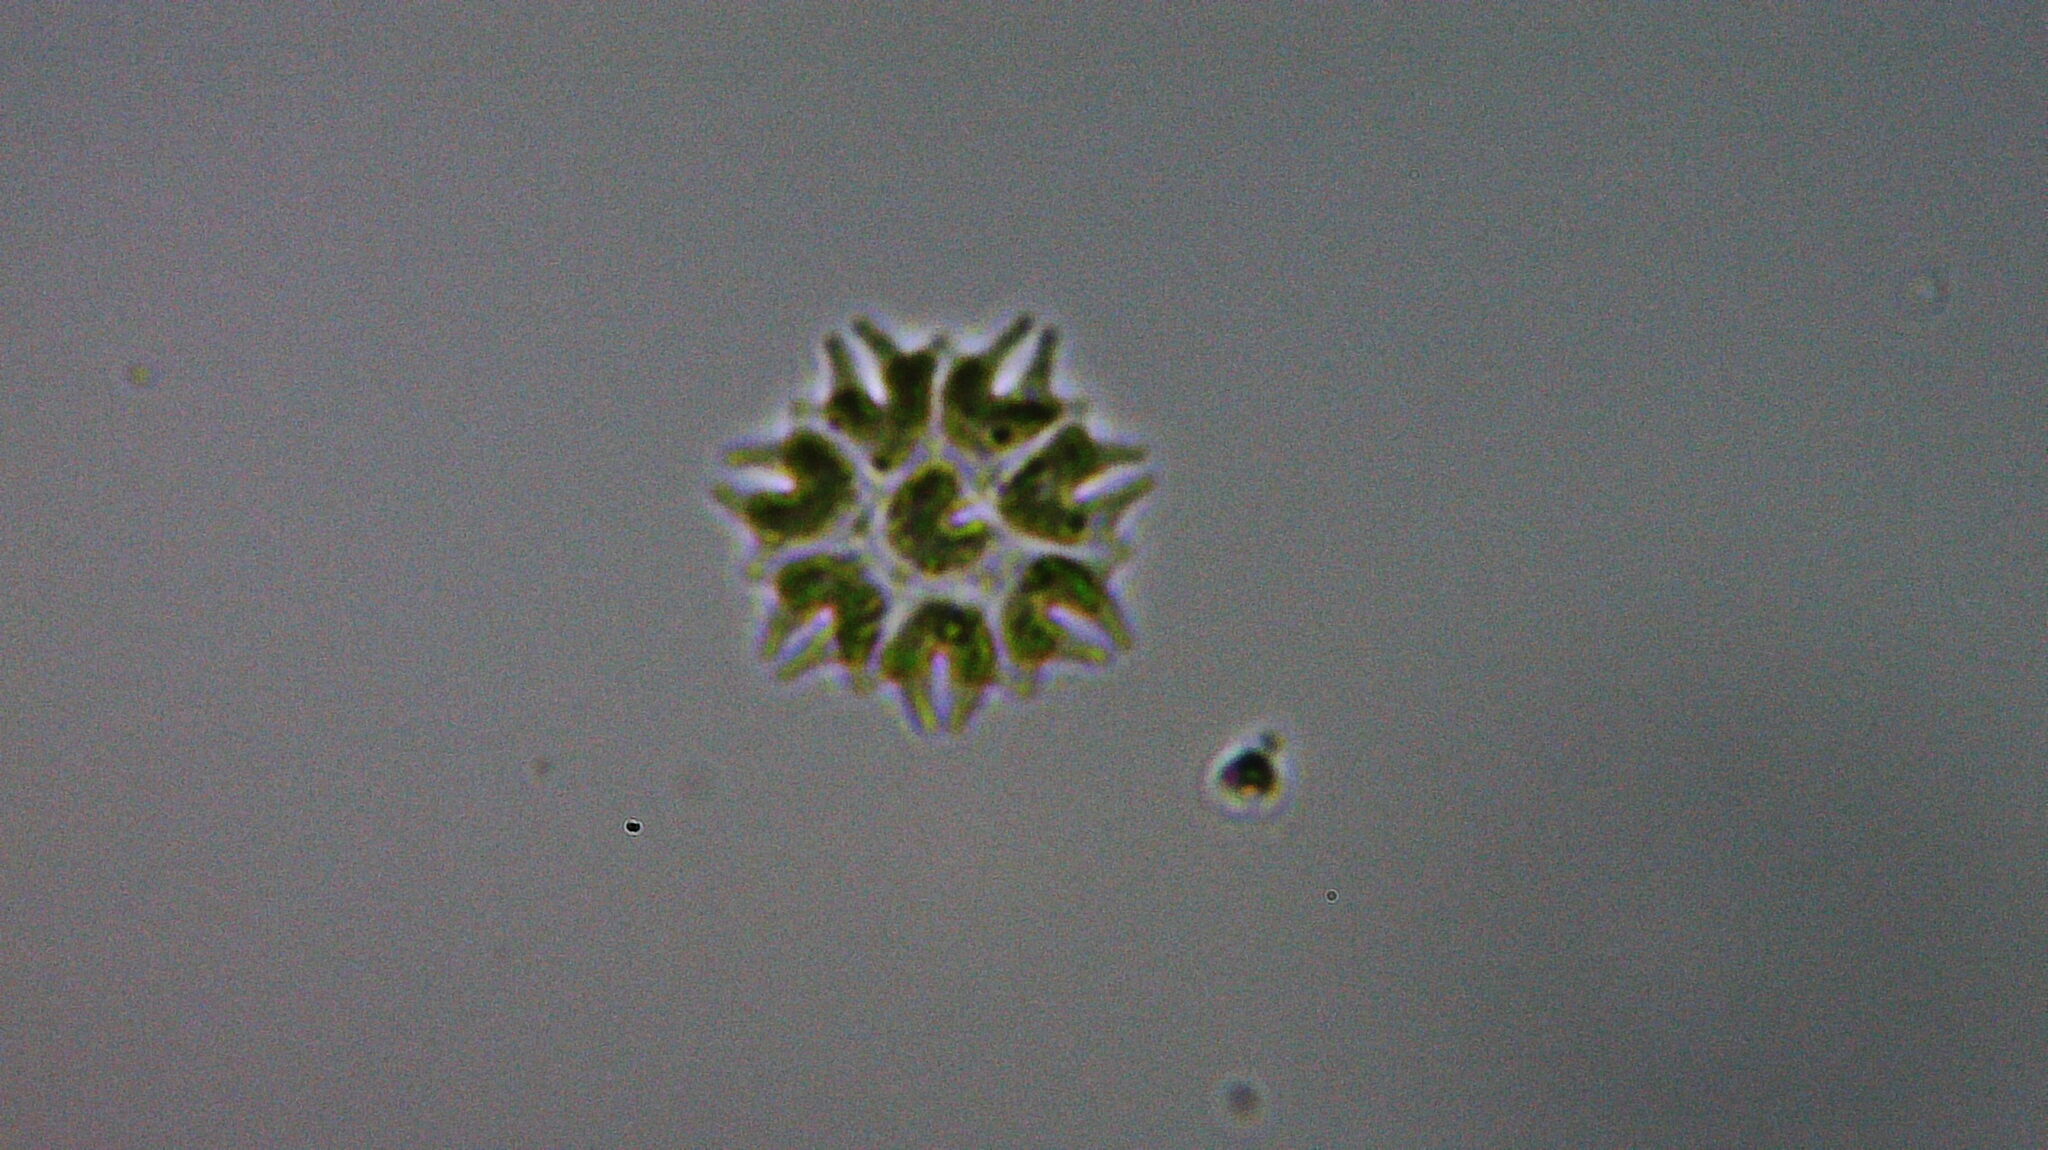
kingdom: Plantae
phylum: Chlorophyta
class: Chlorophyceae
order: Sphaeropleales
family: Hydrodictyaceae
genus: Stauridium
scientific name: Stauridium tetras
